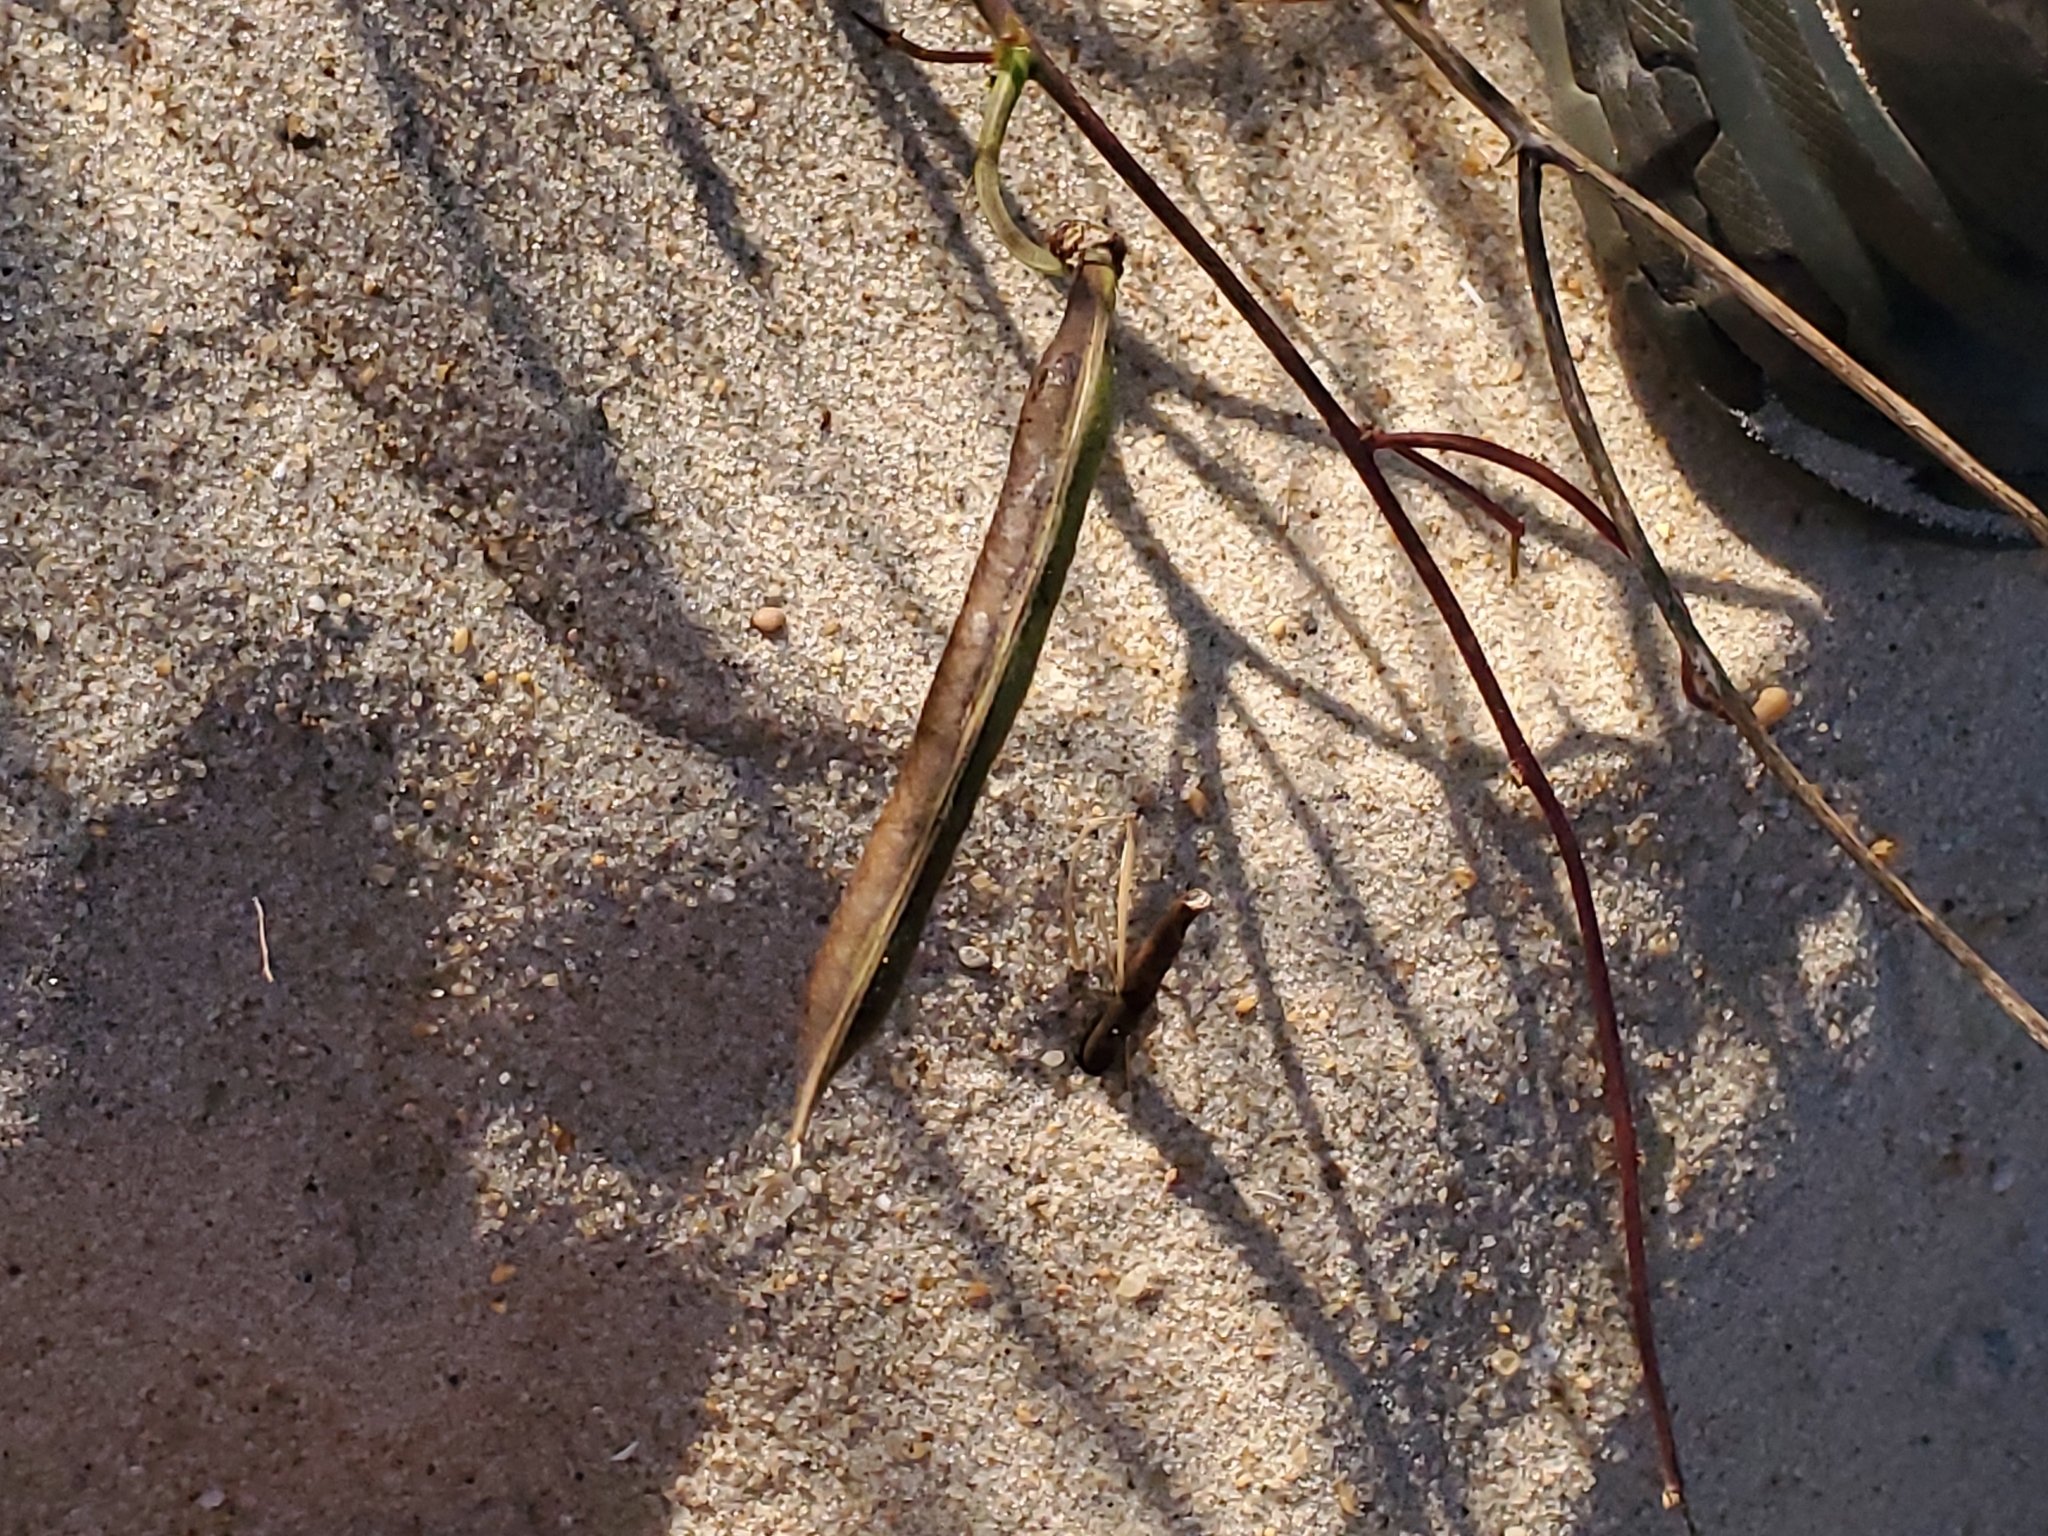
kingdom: Plantae
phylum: Tracheophyta
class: Magnoliopsida
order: Fabales
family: Fabaceae
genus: Strophostyles
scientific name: Strophostyles helvola
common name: Trailing wild bean
